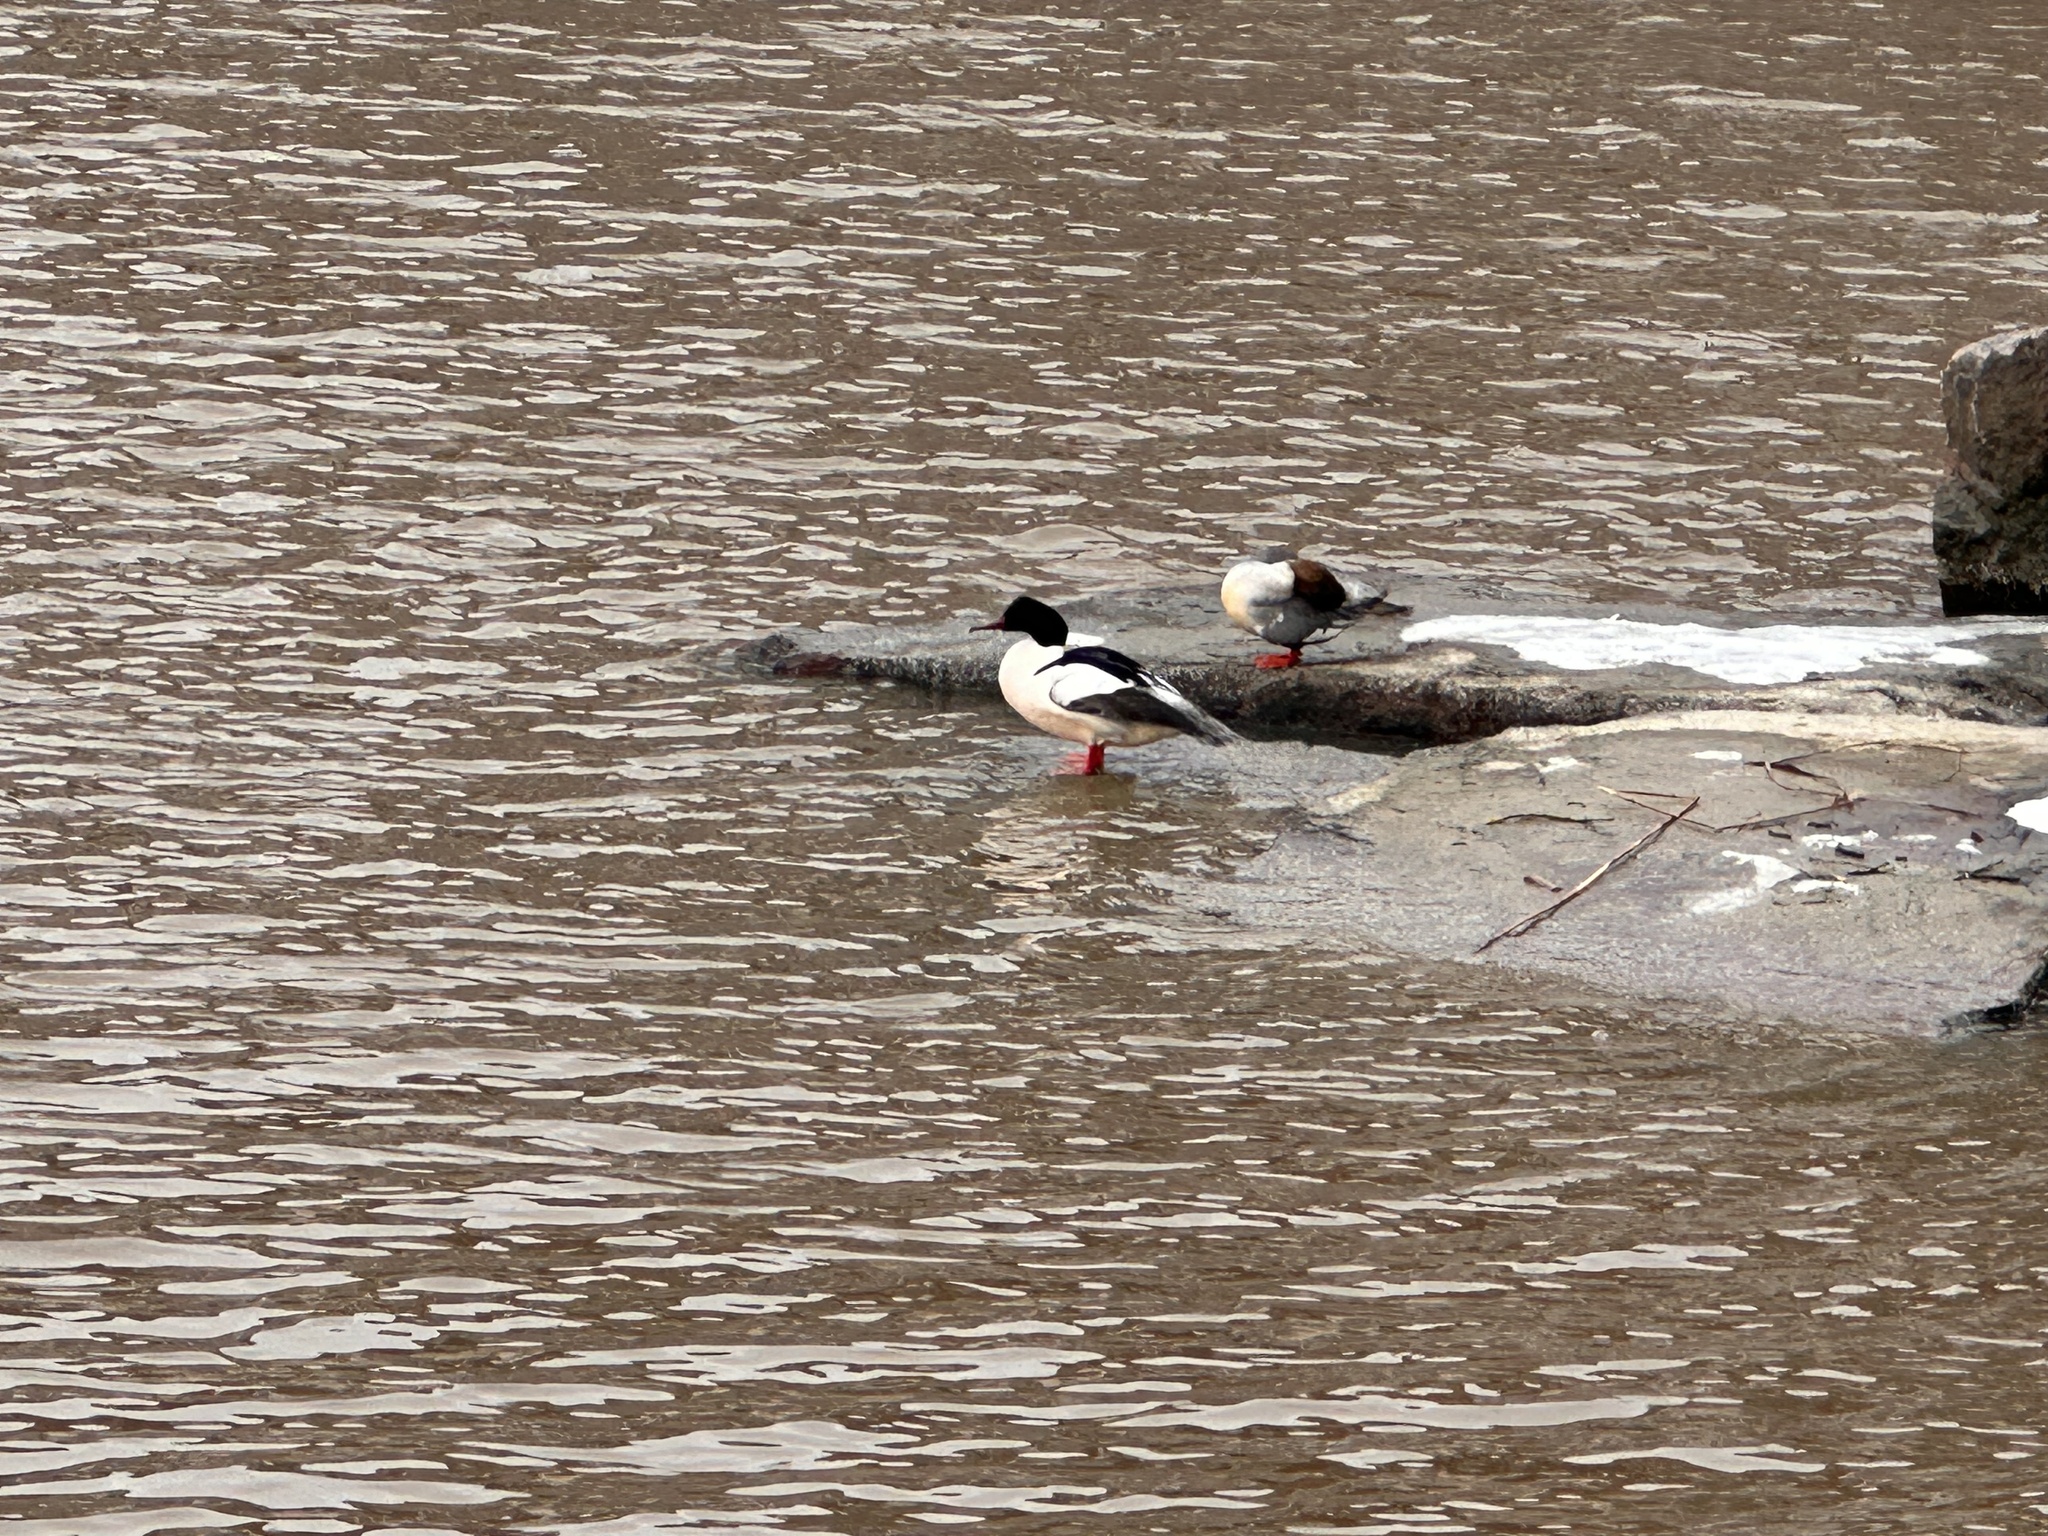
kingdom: Animalia
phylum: Chordata
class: Aves
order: Anseriformes
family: Anatidae
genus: Mergus
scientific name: Mergus merganser
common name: Common merganser
